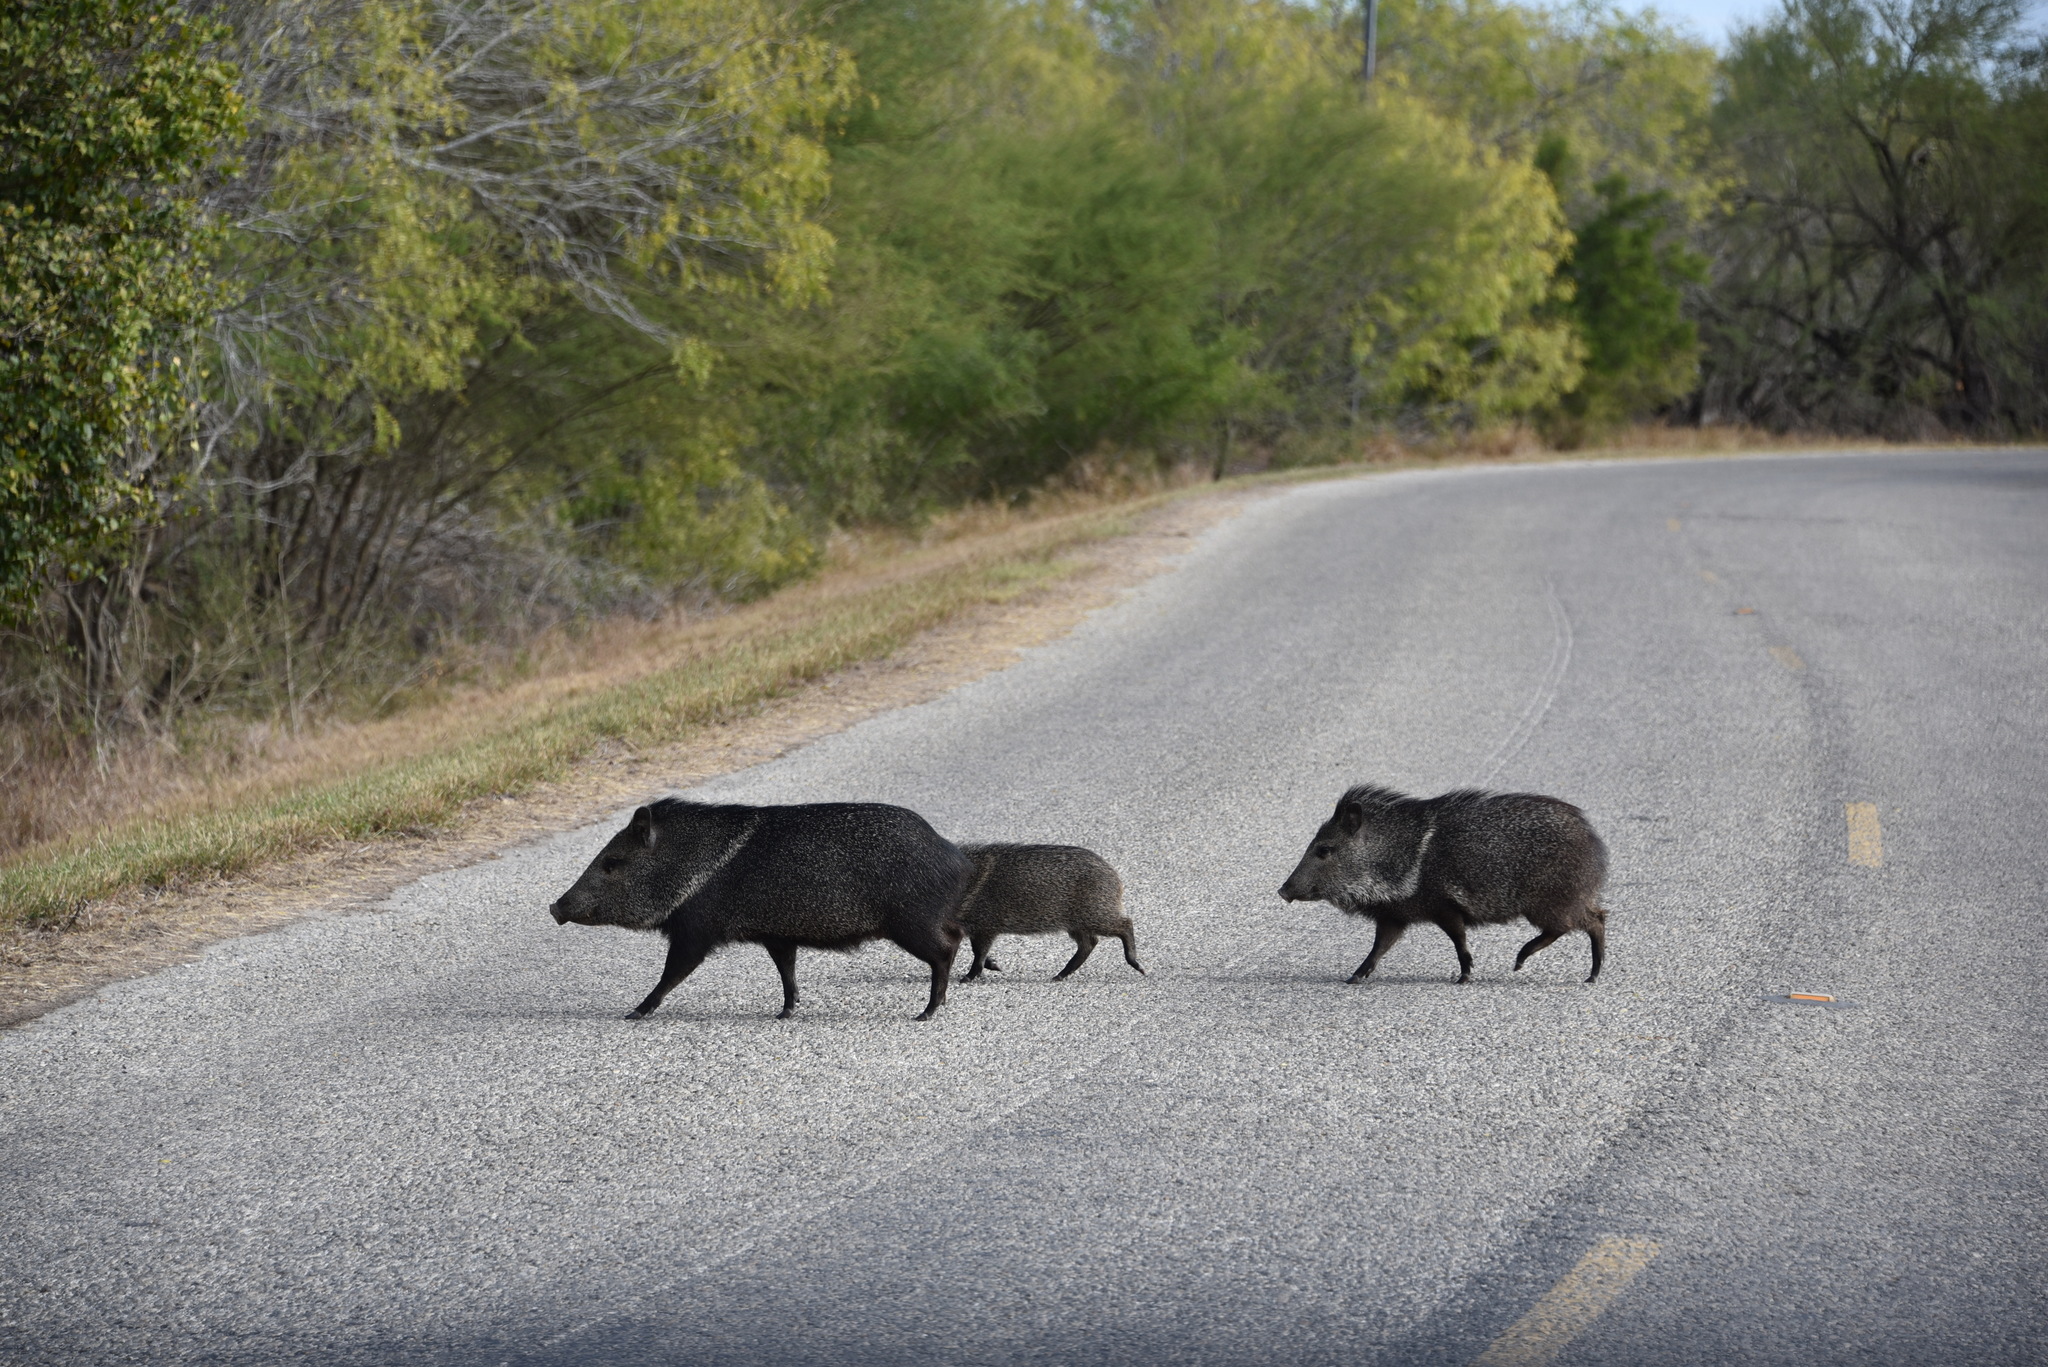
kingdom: Animalia
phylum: Chordata
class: Mammalia
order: Artiodactyla
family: Tayassuidae
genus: Pecari
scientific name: Pecari tajacu
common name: Collared peccary
